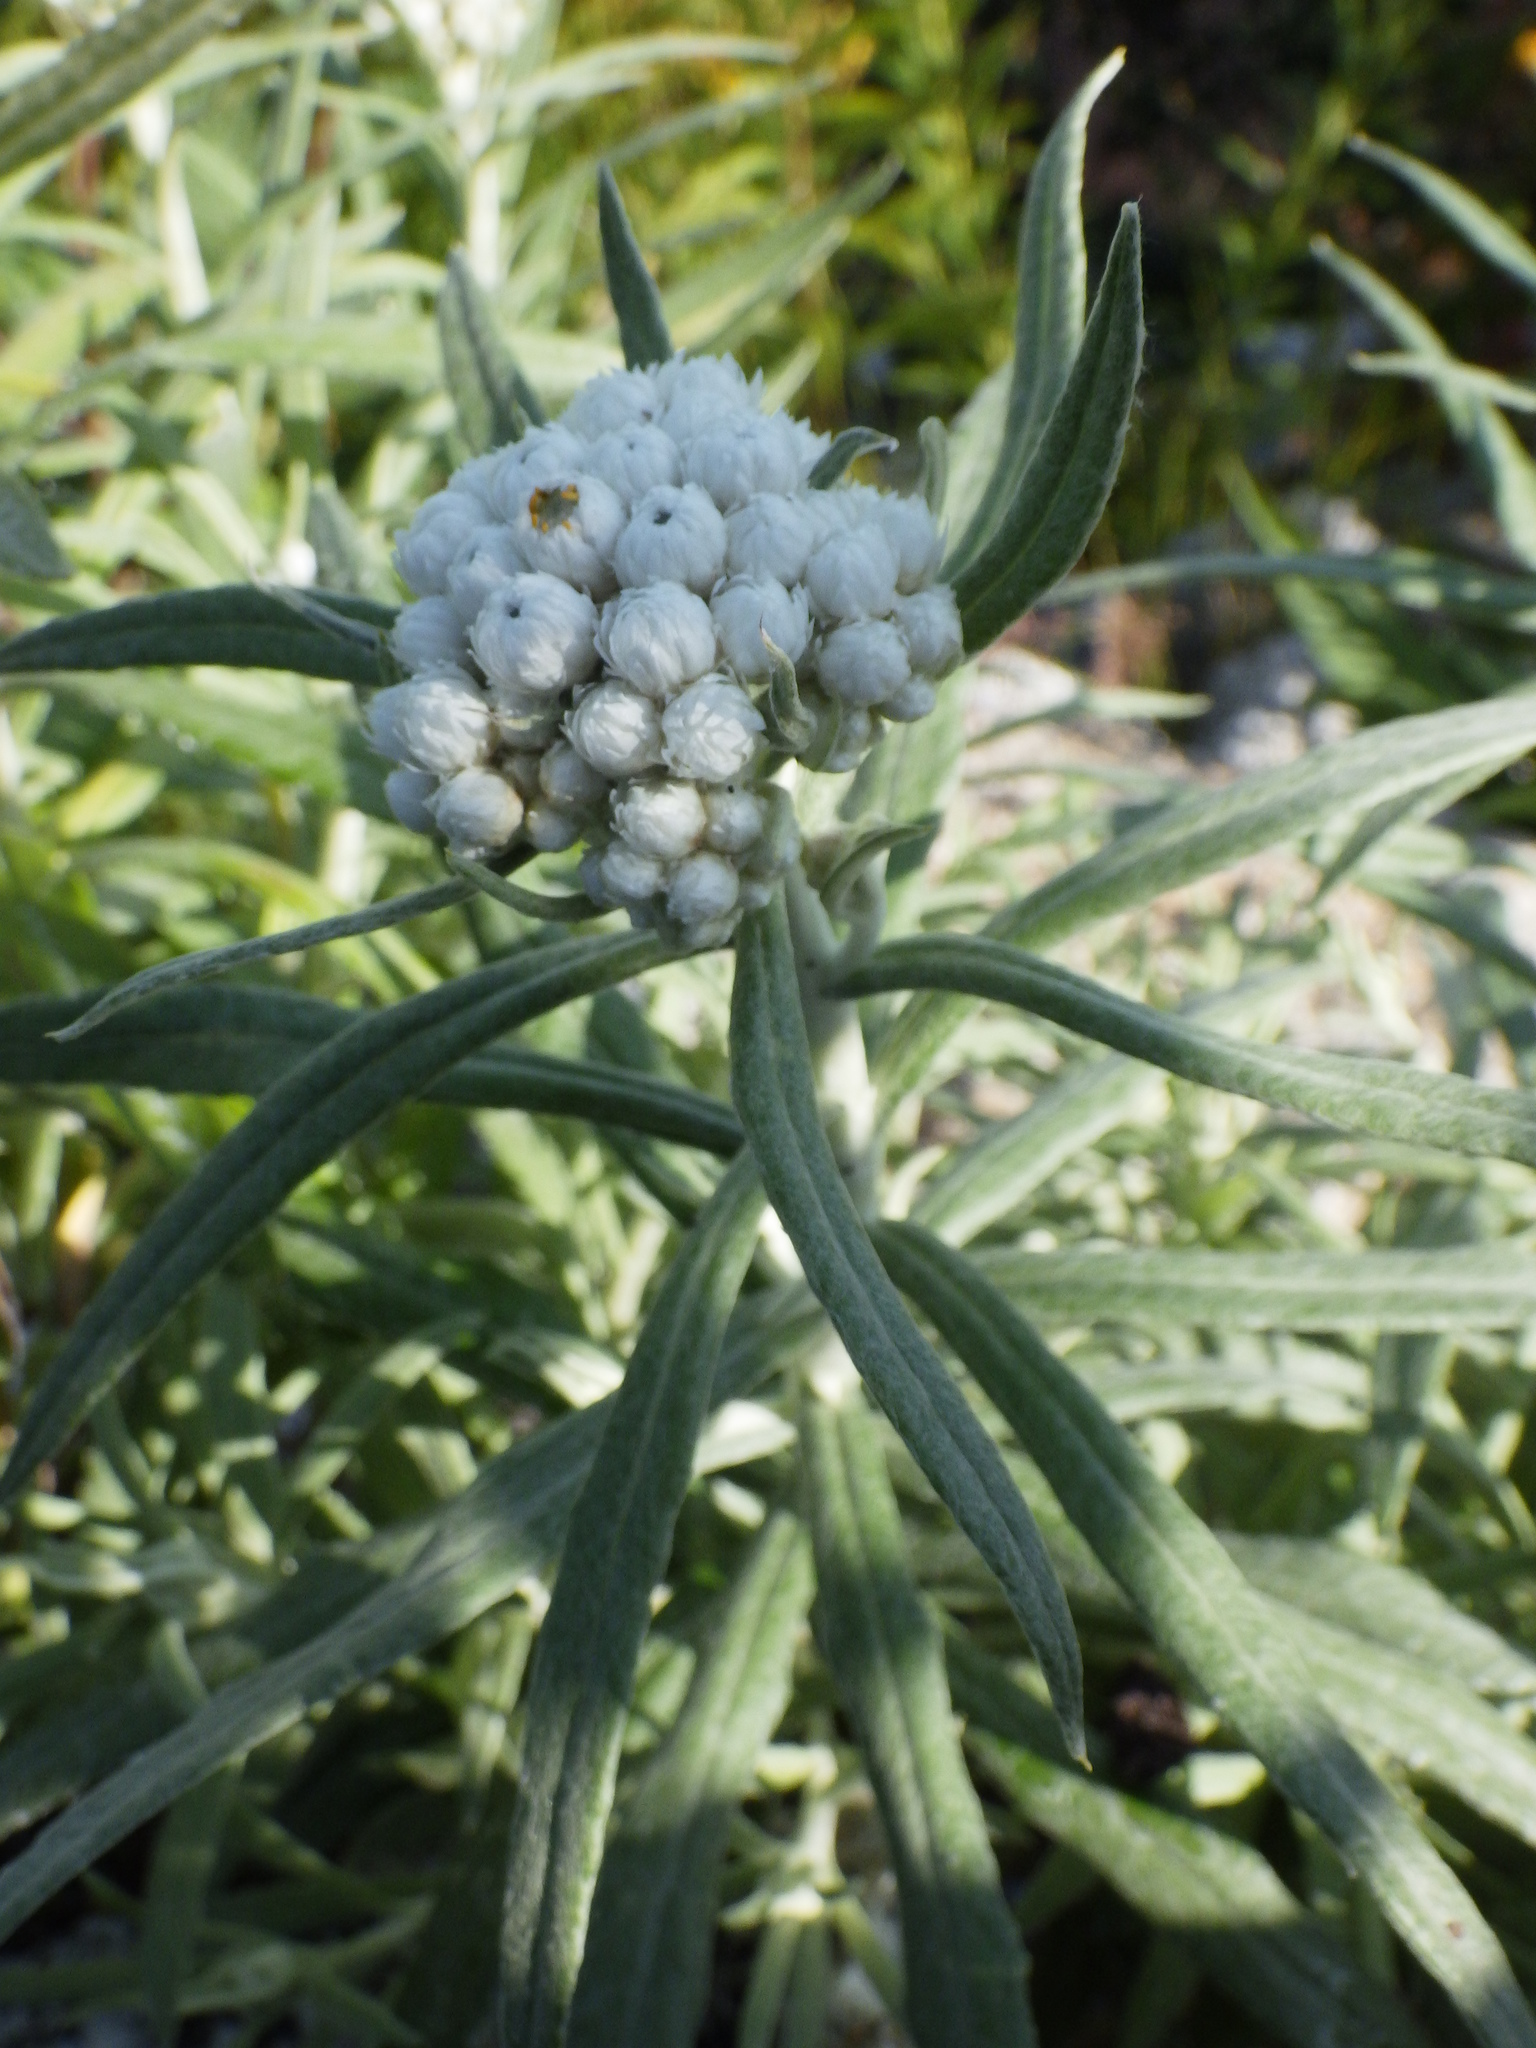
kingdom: Plantae
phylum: Tracheophyta
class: Magnoliopsida
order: Asterales
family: Asteraceae
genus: Anaphalis
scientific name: Anaphalis margaritacea
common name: Pearly everlasting
